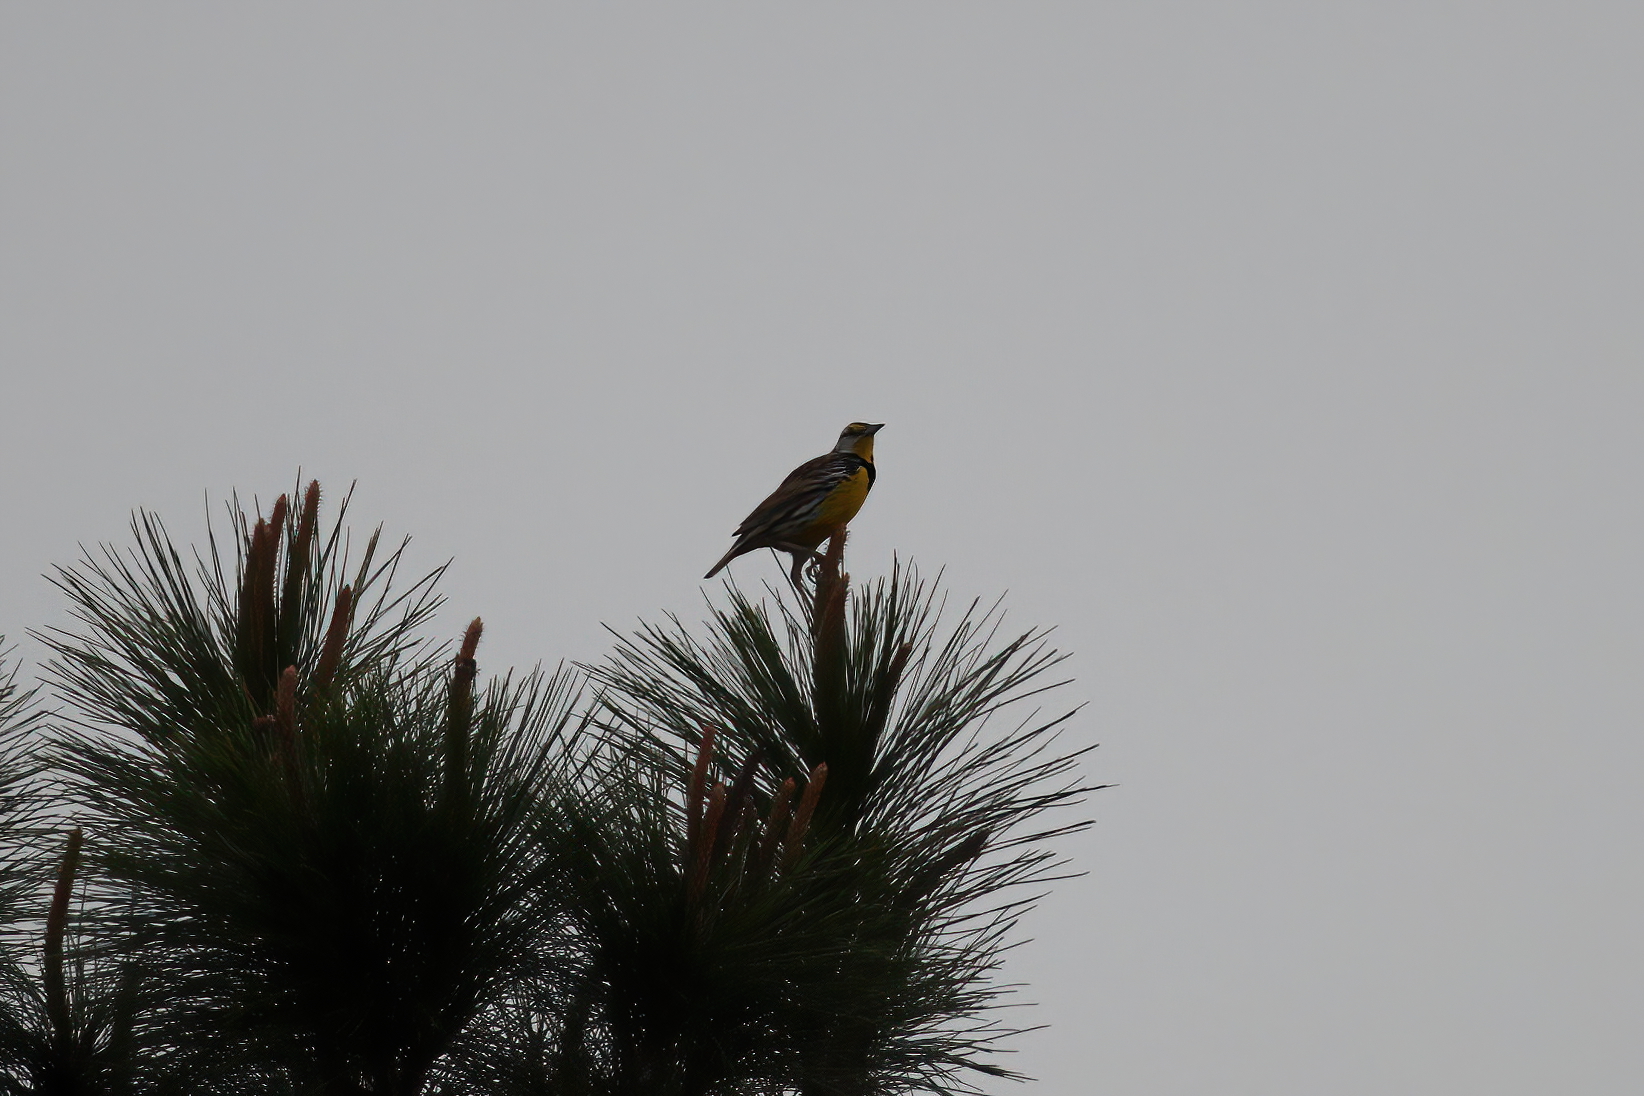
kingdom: Animalia
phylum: Chordata
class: Aves
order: Passeriformes
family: Icteridae
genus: Sturnella
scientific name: Sturnella magna
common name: Eastern meadowlark
